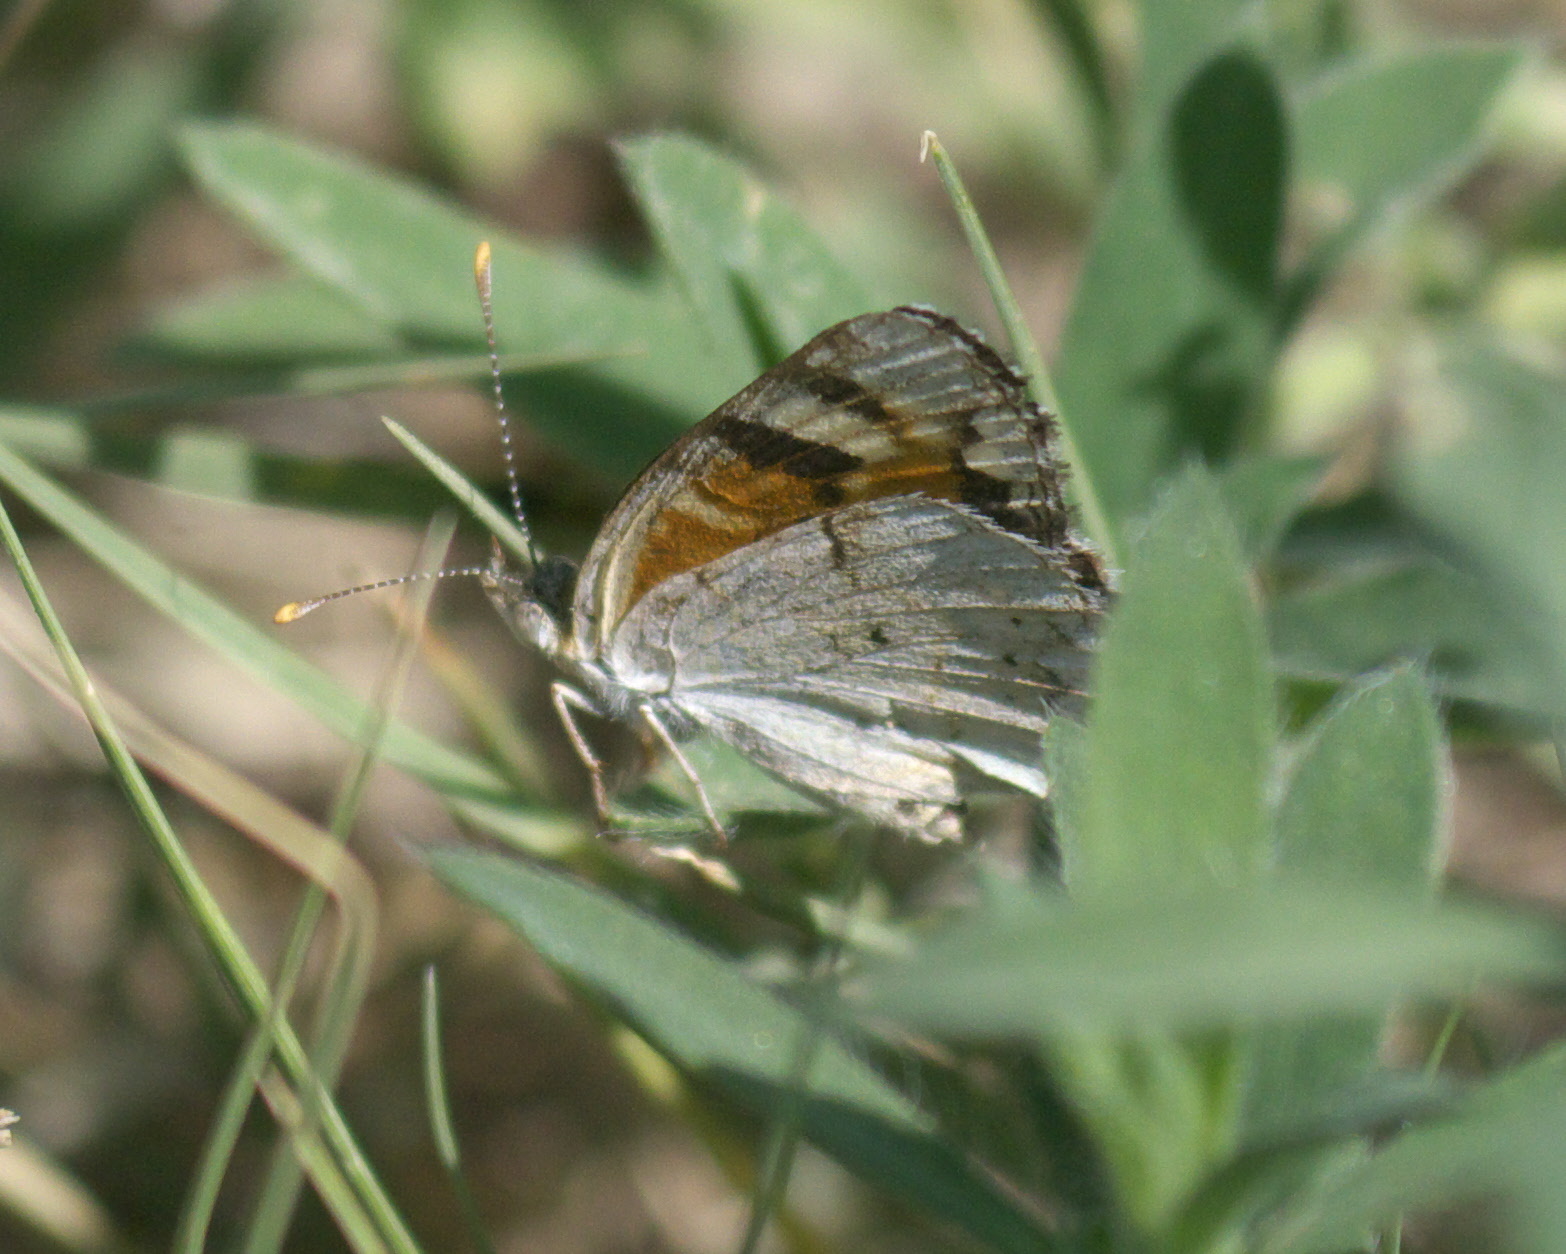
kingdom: Animalia
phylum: Arthropoda
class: Insecta
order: Lepidoptera
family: Nymphalidae
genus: Phyciodes
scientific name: Phyciodes picta
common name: Painted crescent
